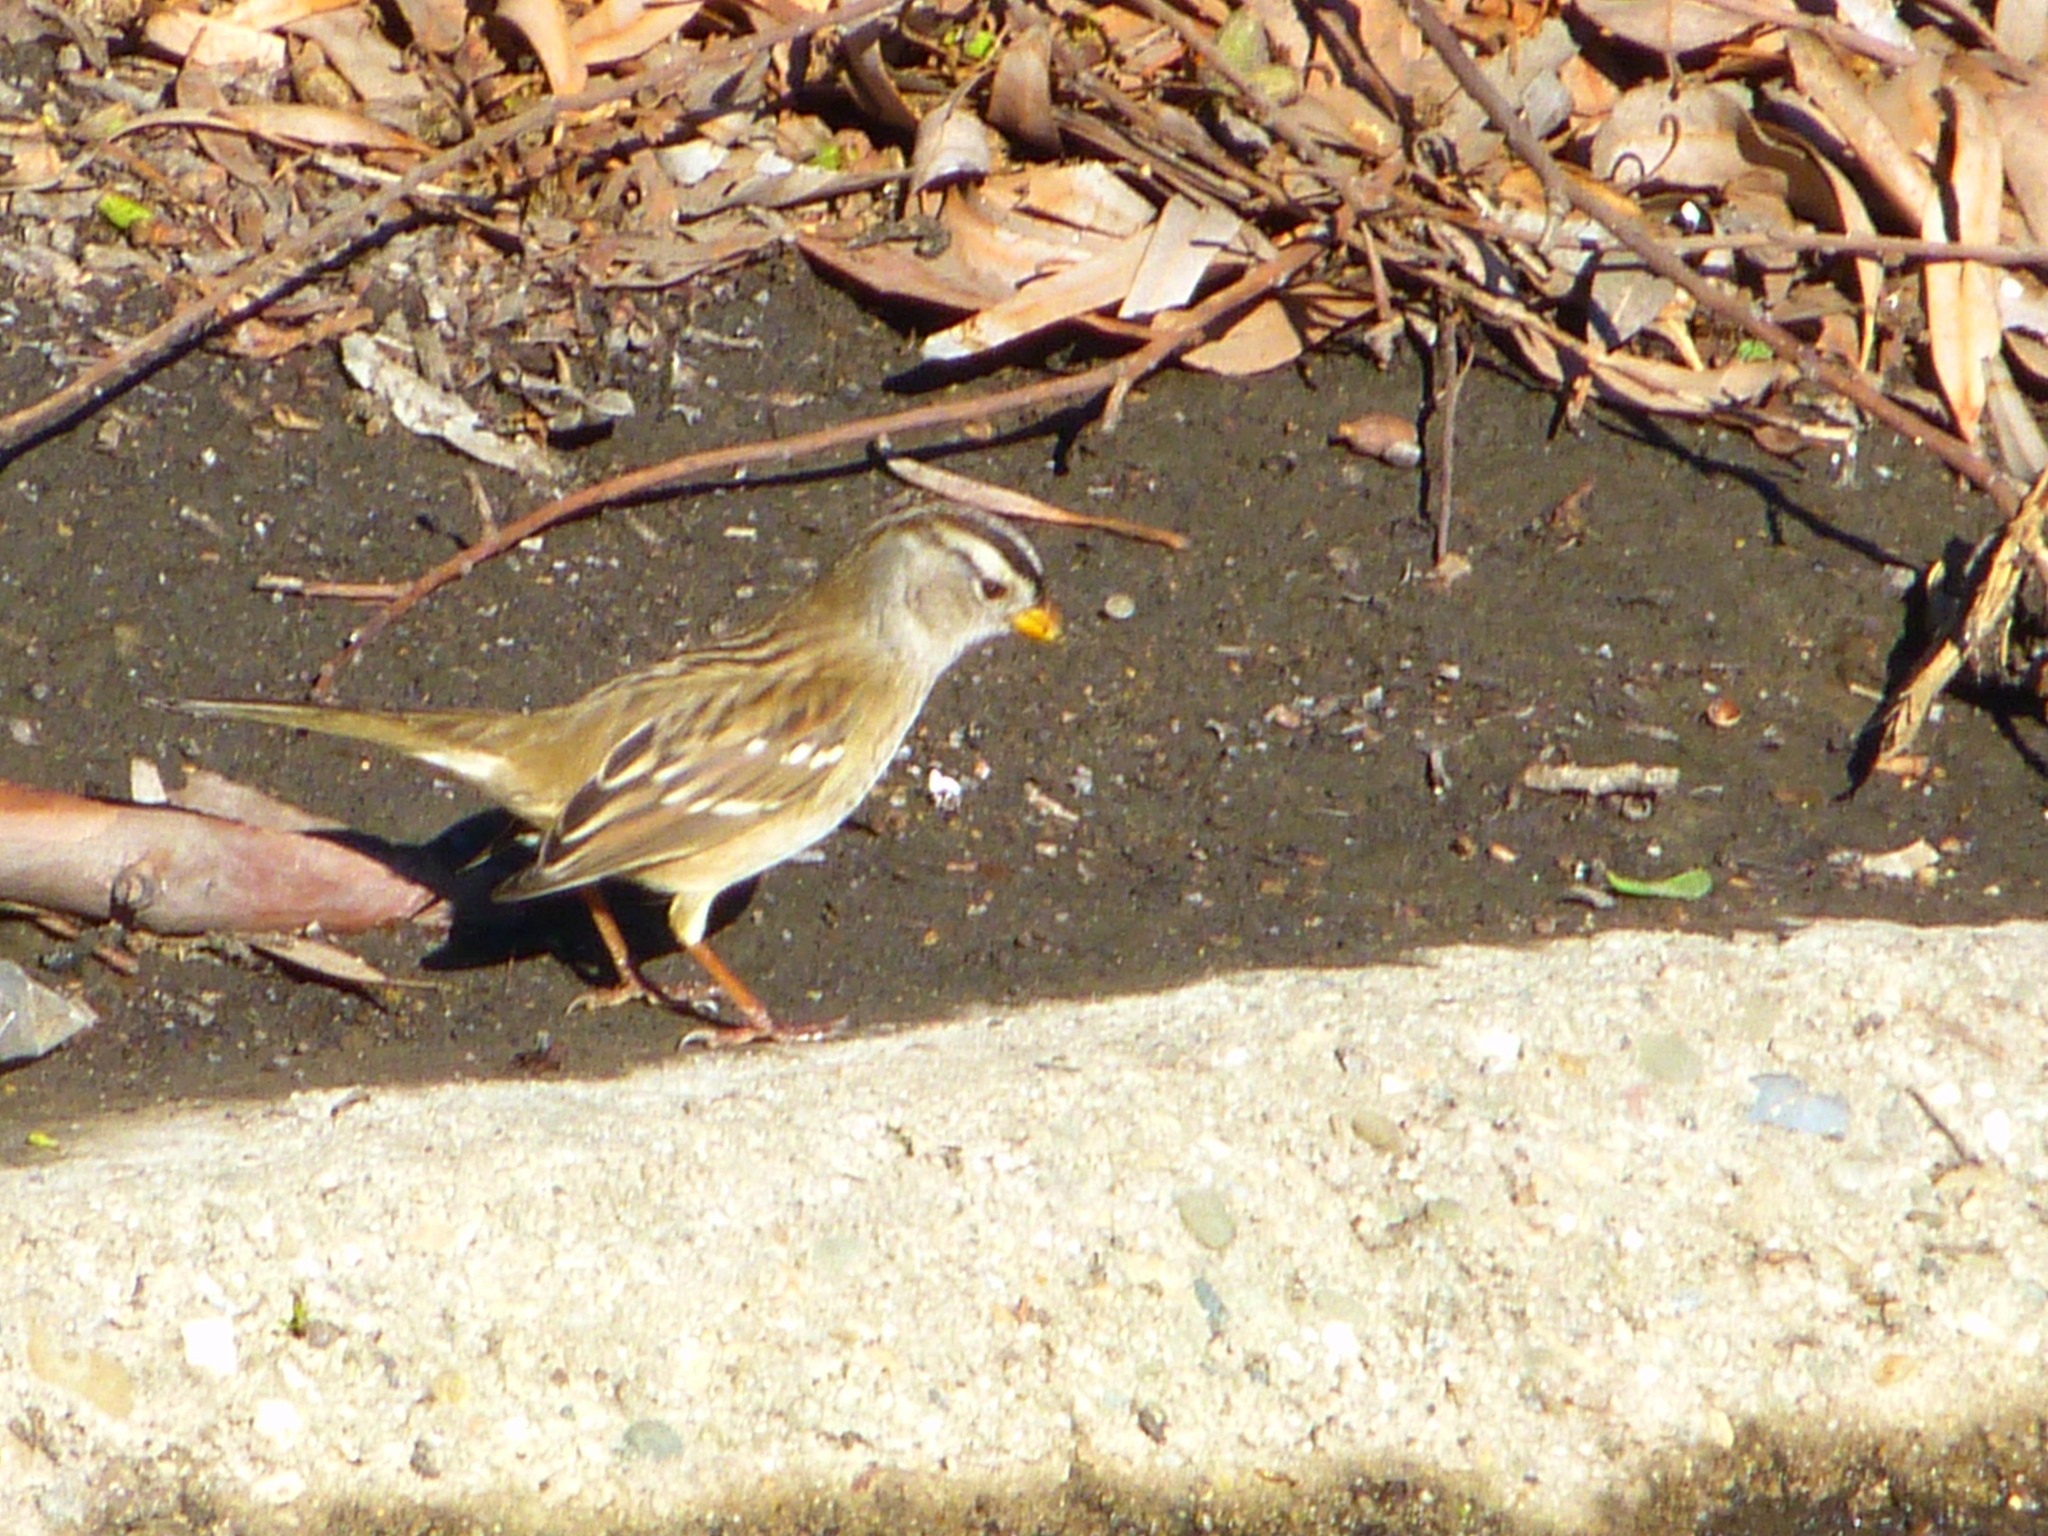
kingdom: Animalia
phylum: Chordata
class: Aves
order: Passeriformes
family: Passerellidae
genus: Zonotrichia
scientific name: Zonotrichia leucophrys
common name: White-crowned sparrow
